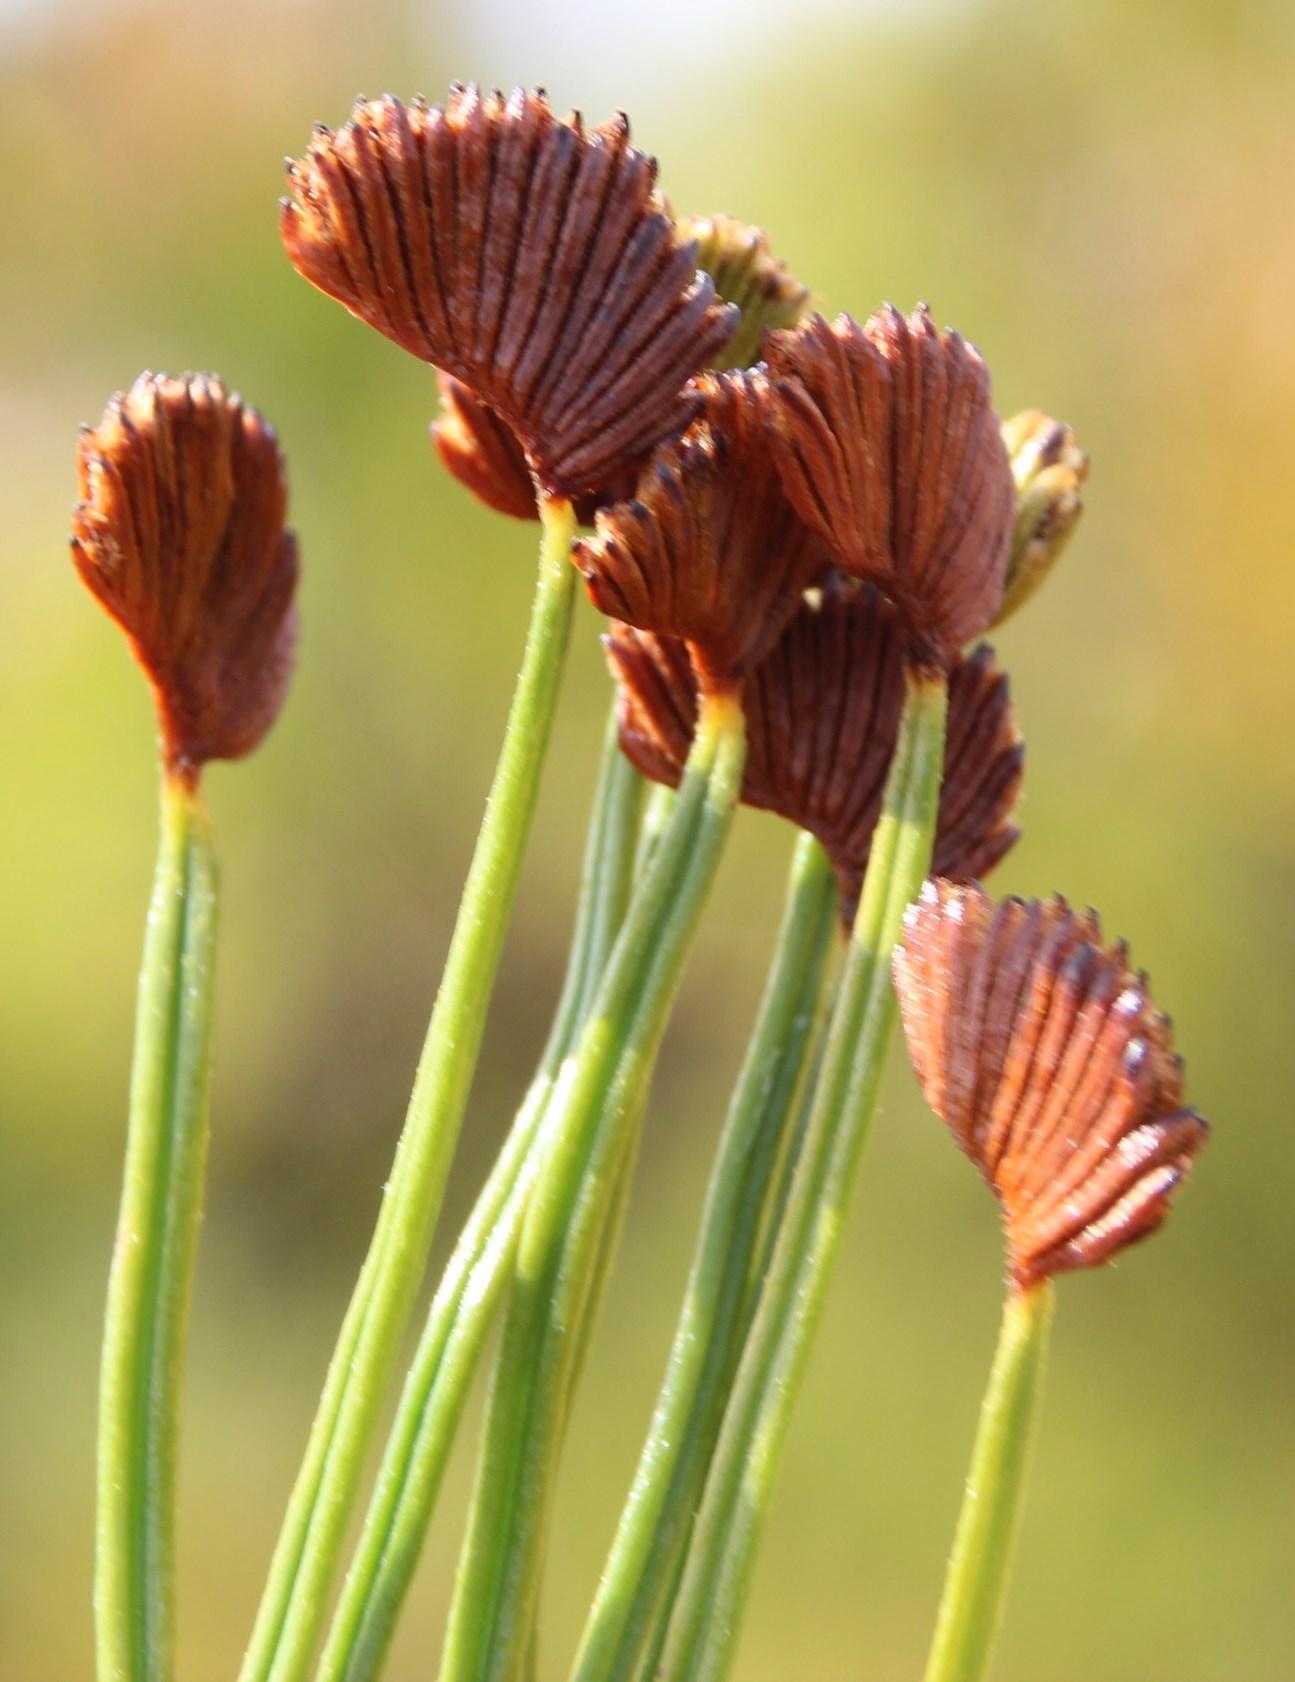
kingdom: Plantae
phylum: Tracheophyta
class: Polypodiopsida
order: Schizaeales
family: Schizaeaceae
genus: Schizaea
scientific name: Schizaea pectinata
